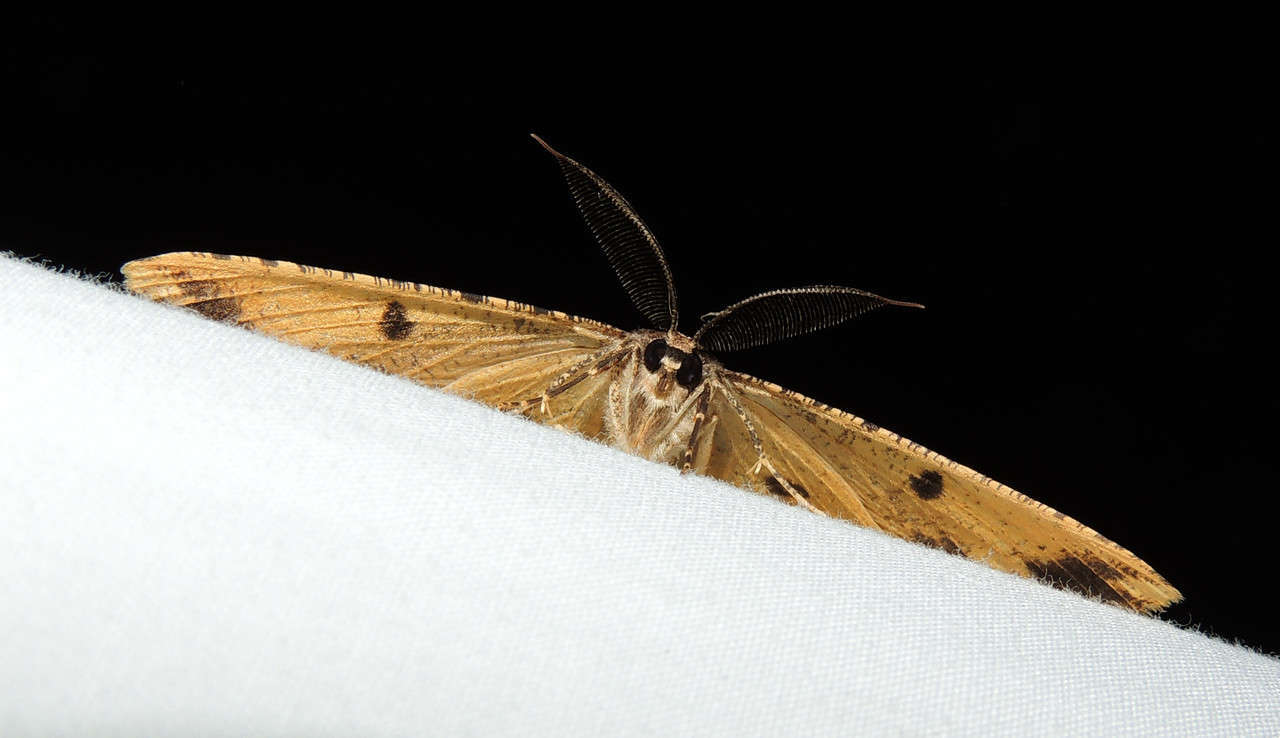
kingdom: Animalia
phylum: Arthropoda
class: Insecta
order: Lepidoptera
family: Geometridae
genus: Scioglyptis
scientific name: Scioglyptis lyciaria
